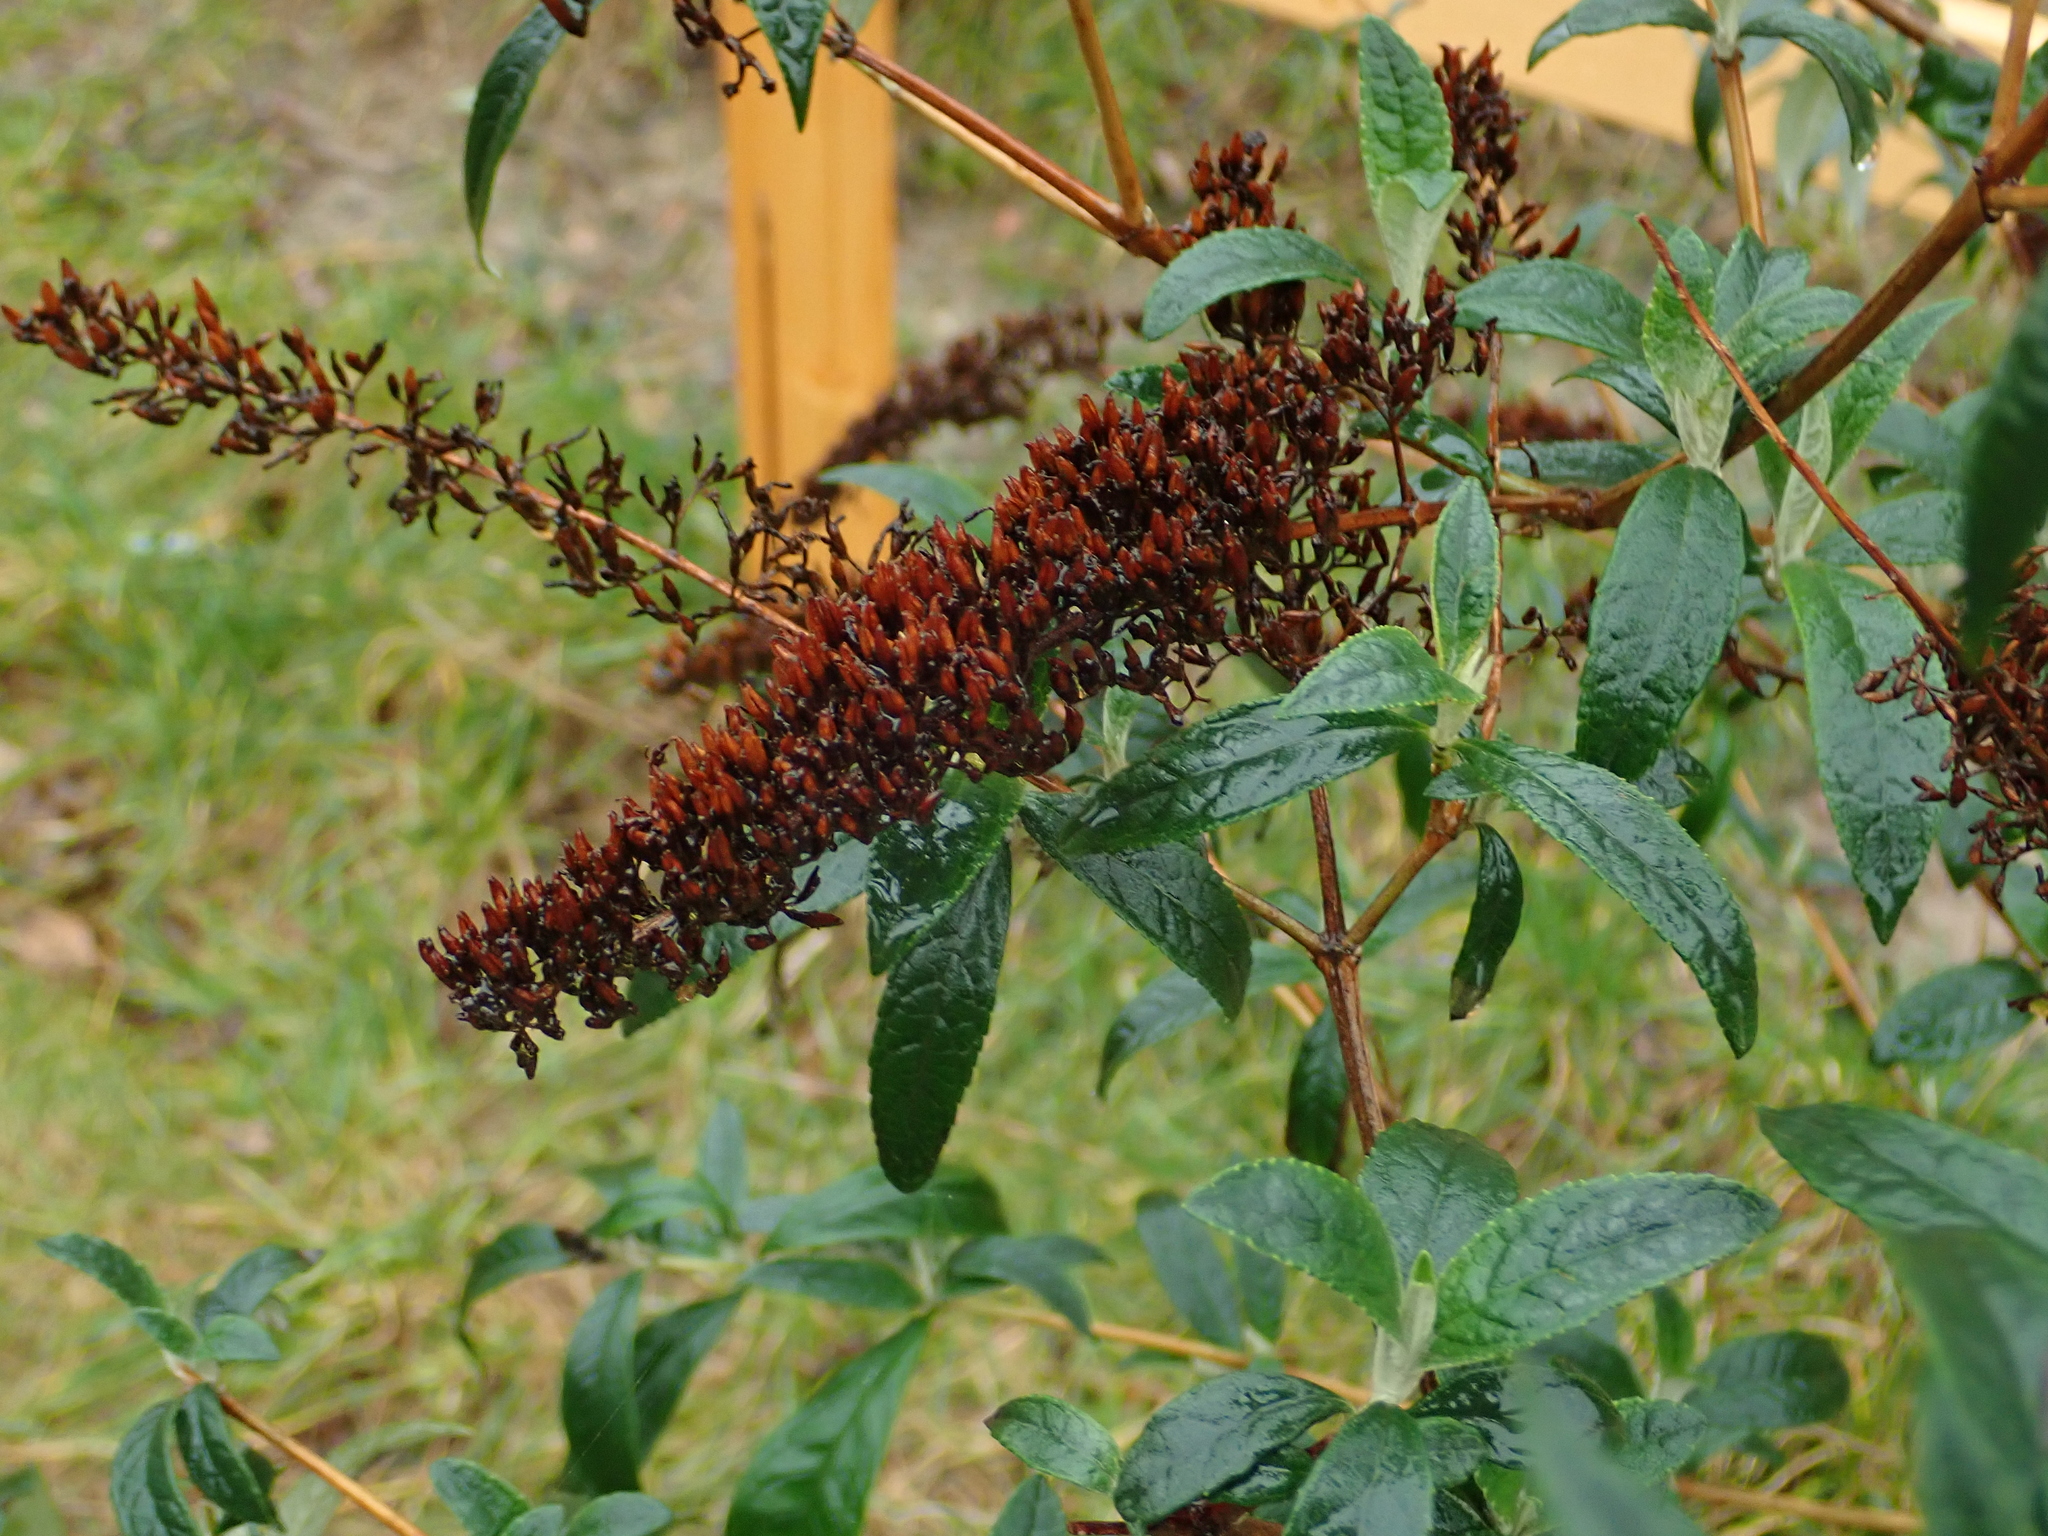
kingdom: Plantae
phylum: Tracheophyta
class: Magnoliopsida
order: Lamiales
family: Scrophulariaceae
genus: Buddleja
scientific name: Buddleja davidii
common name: Butterfly-bush
